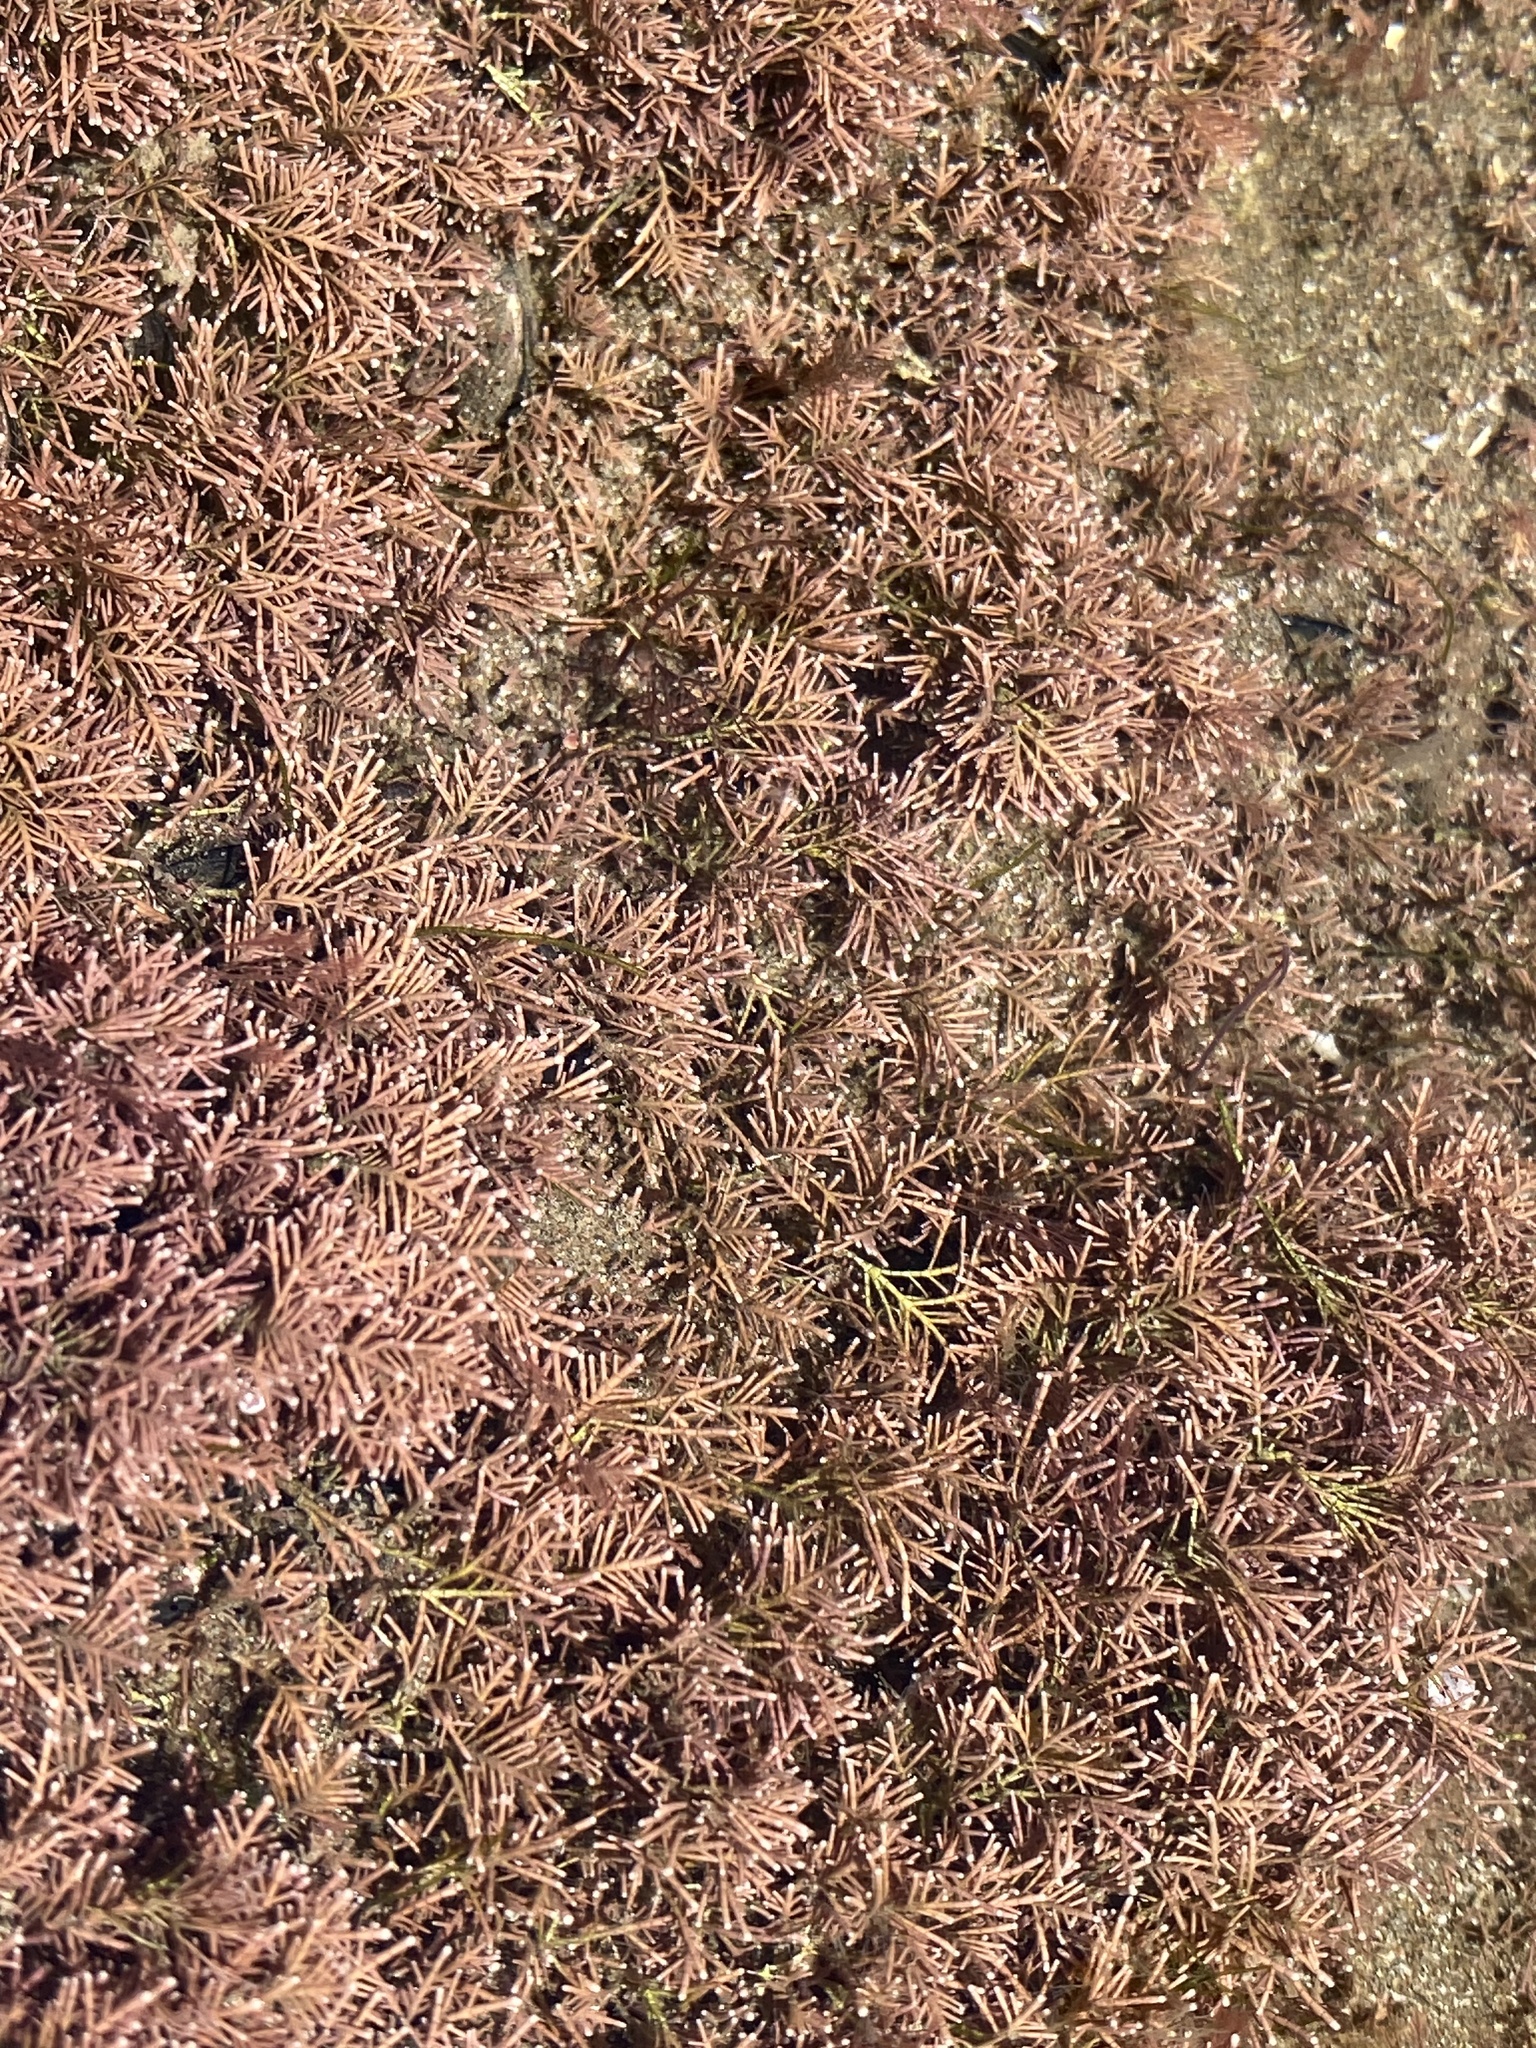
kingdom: Plantae
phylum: Rhodophyta
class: Florideophyceae
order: Corallinales
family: Corallinaceae
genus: Corallina
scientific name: Corallina officinalis
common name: Coral weed
